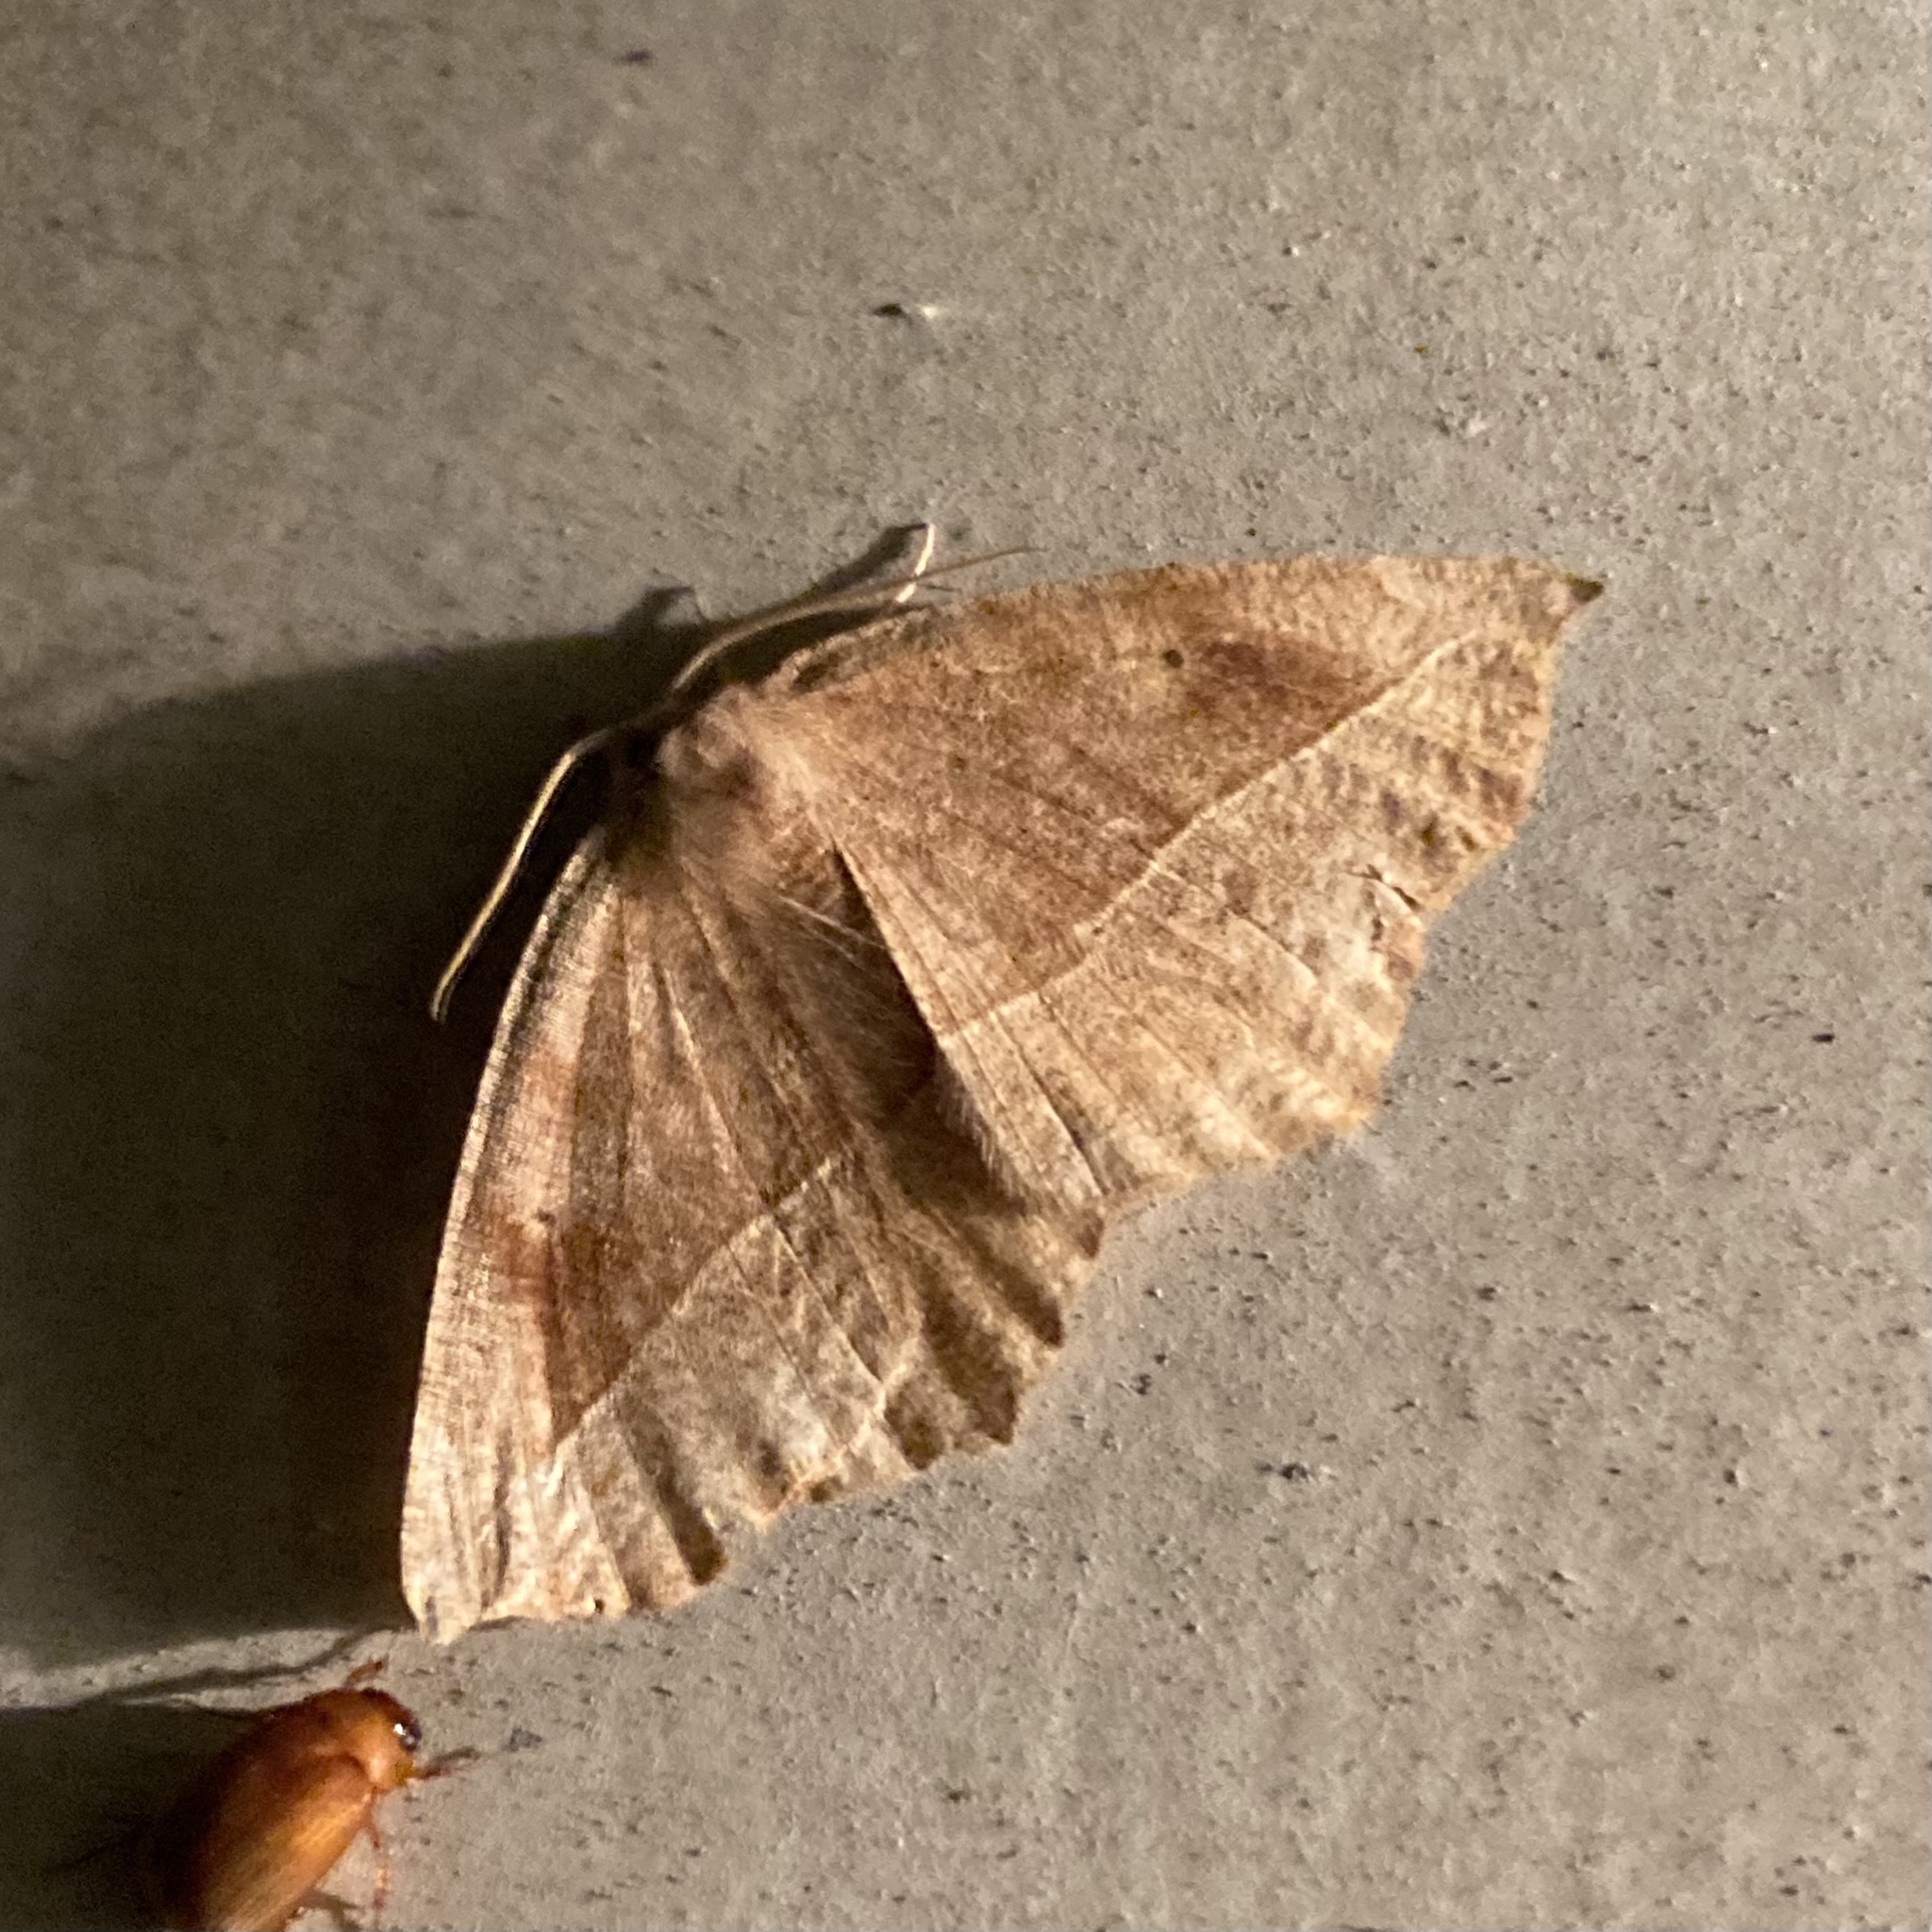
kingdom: Animalia
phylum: Arthropoda
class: Insecta
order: Lepidoptera
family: Geometridae
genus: Eutrapela
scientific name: Eutrapela clemataria
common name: Curved-toothed geometer
